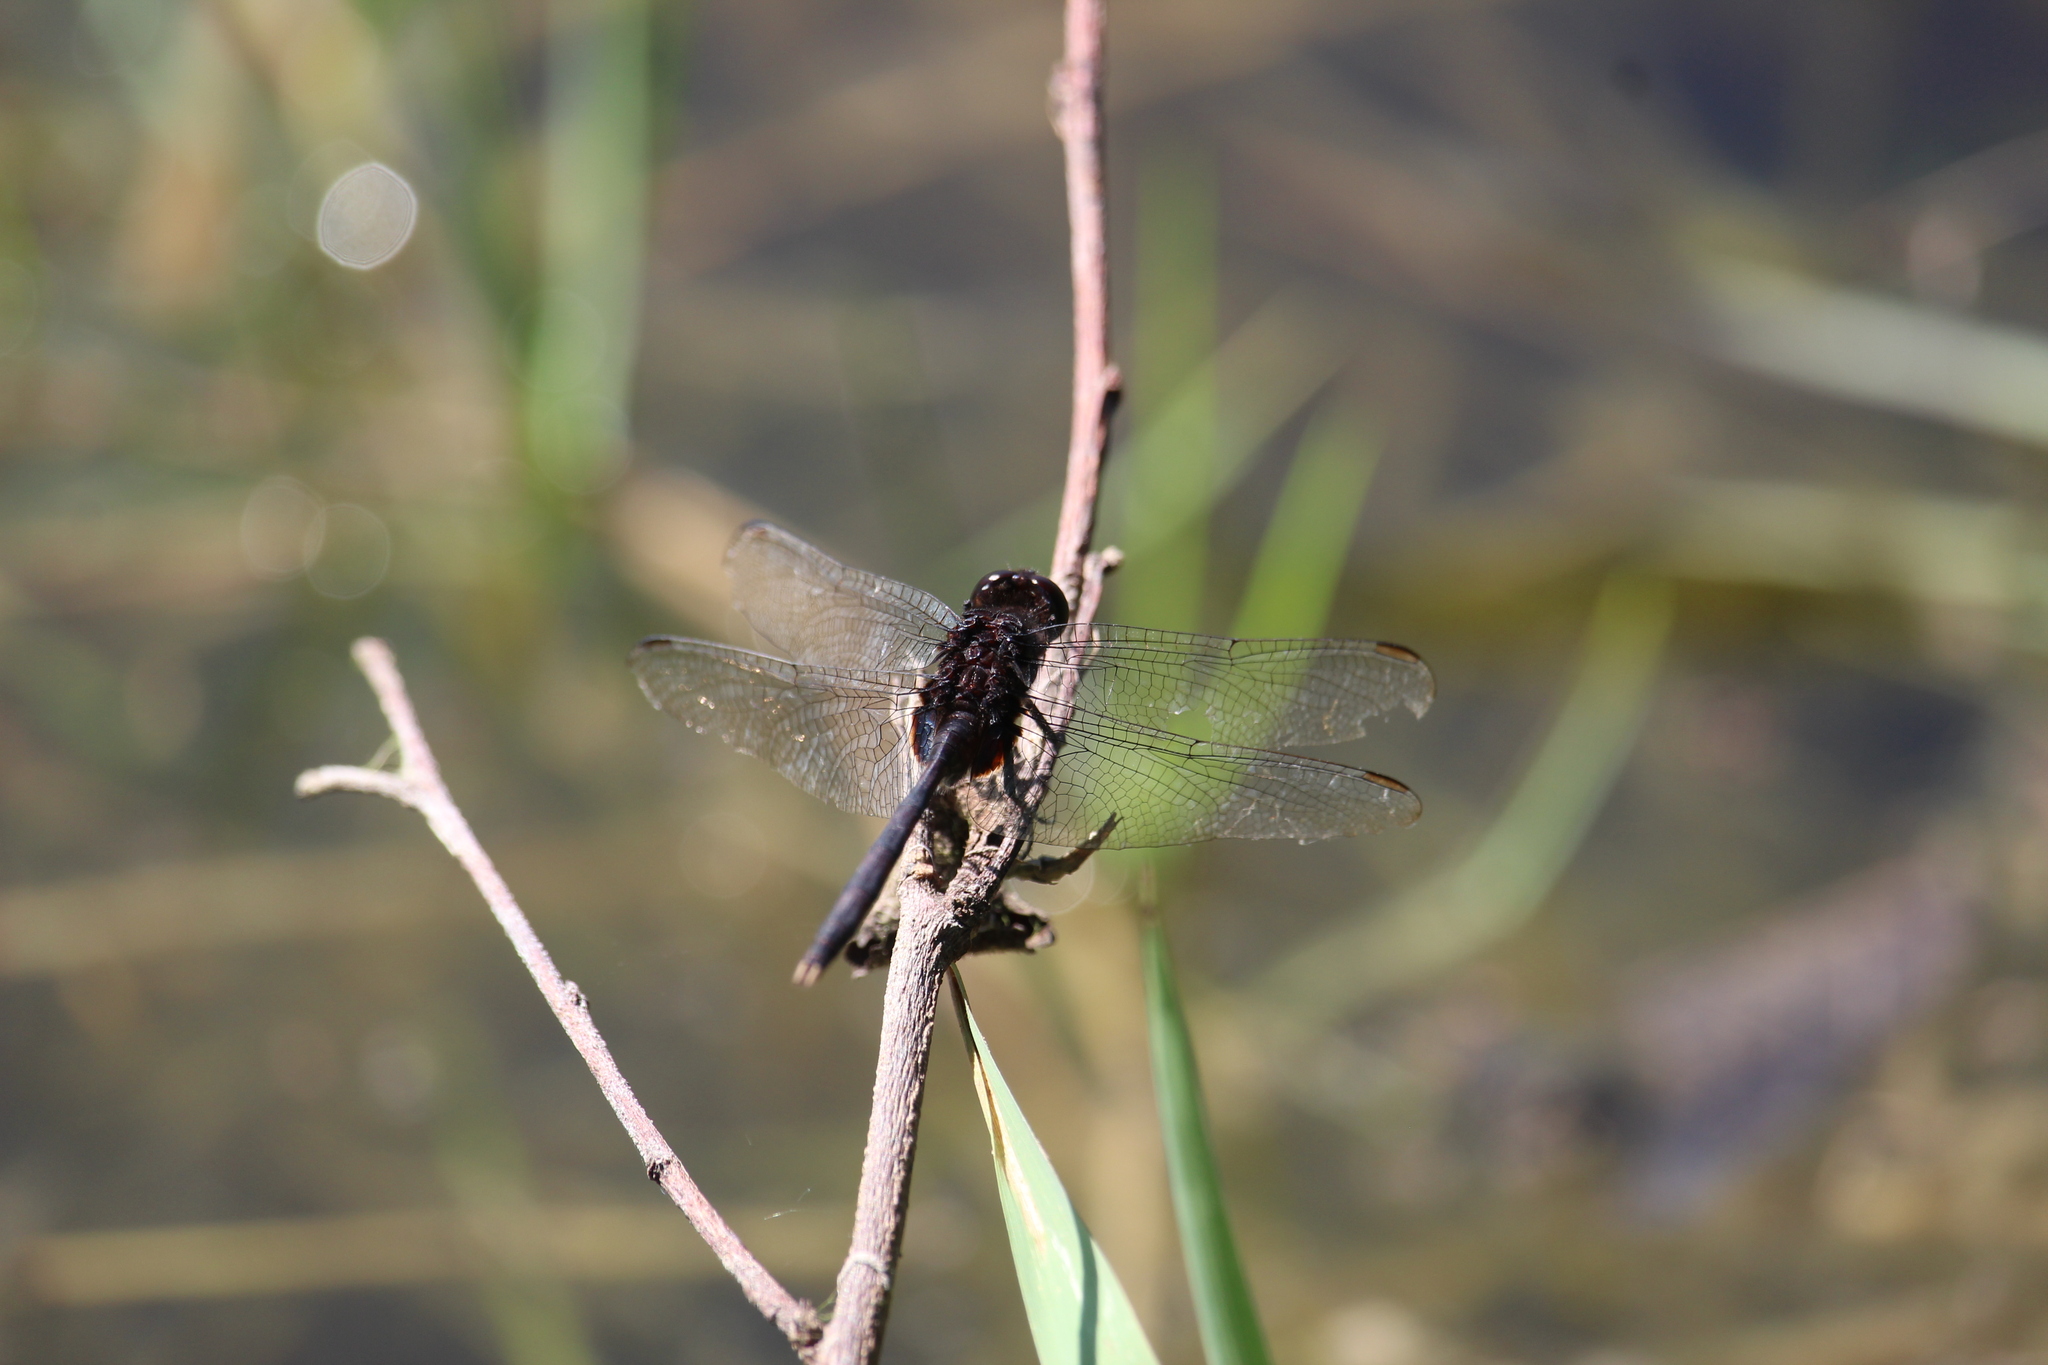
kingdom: Animalia
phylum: Arthropoda
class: Insecta
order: Odonata
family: Libellulidae
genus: Erythemis
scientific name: Erythemis plebeja
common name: Pin-tailed pondhawk
